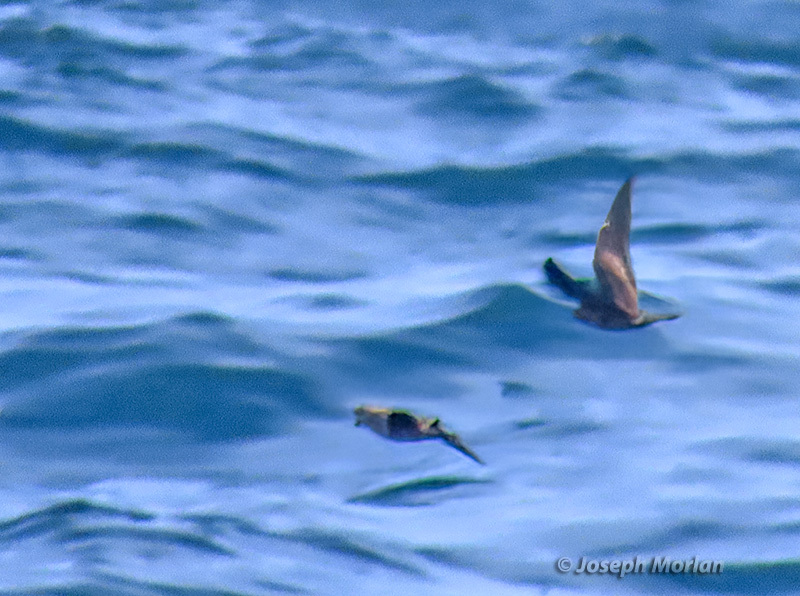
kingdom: Animalia
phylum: Chordata
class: Aves
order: Procellariiformes
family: Hydrobatidae
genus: Hydrobates
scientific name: Hydrobates melania
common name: Black storm petrel
